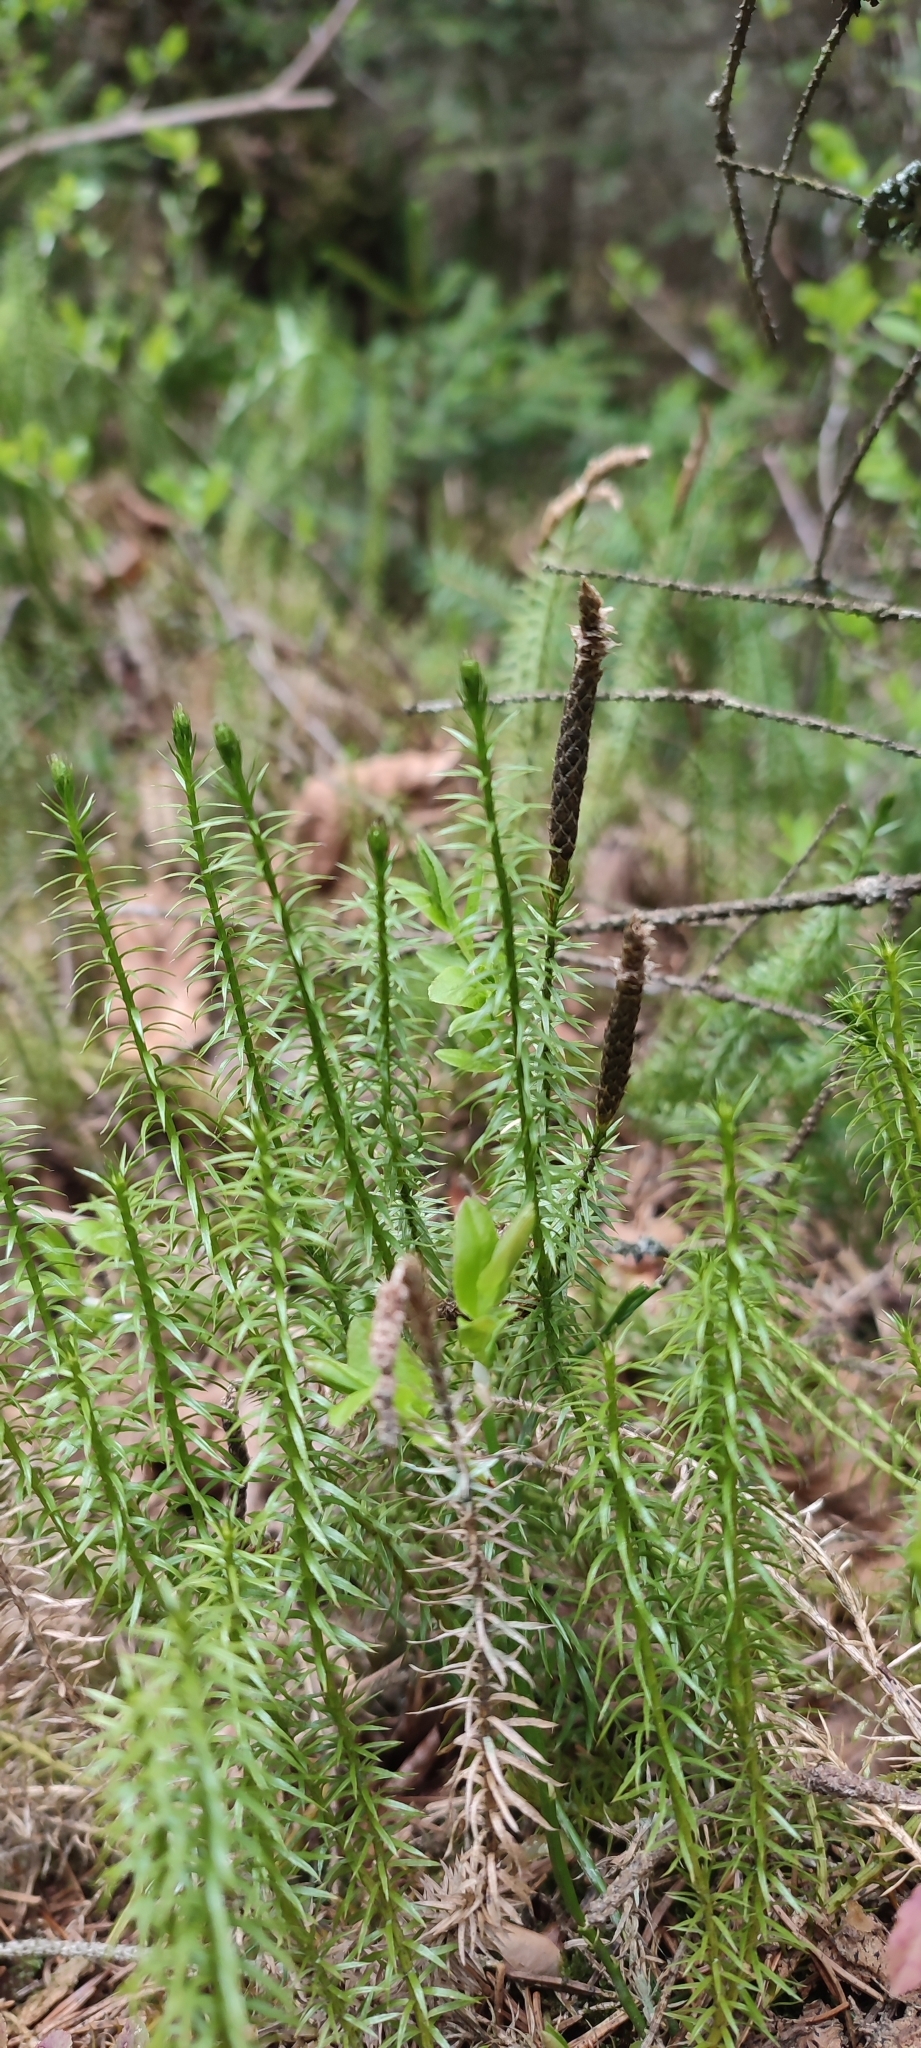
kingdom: Plantae
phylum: Tracheophyta
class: Lycopodiopsida
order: Lycopodiales
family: Lycopodiaceae
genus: Spinulum
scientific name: Spinulum annotinum
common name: Interrupted club-moss
